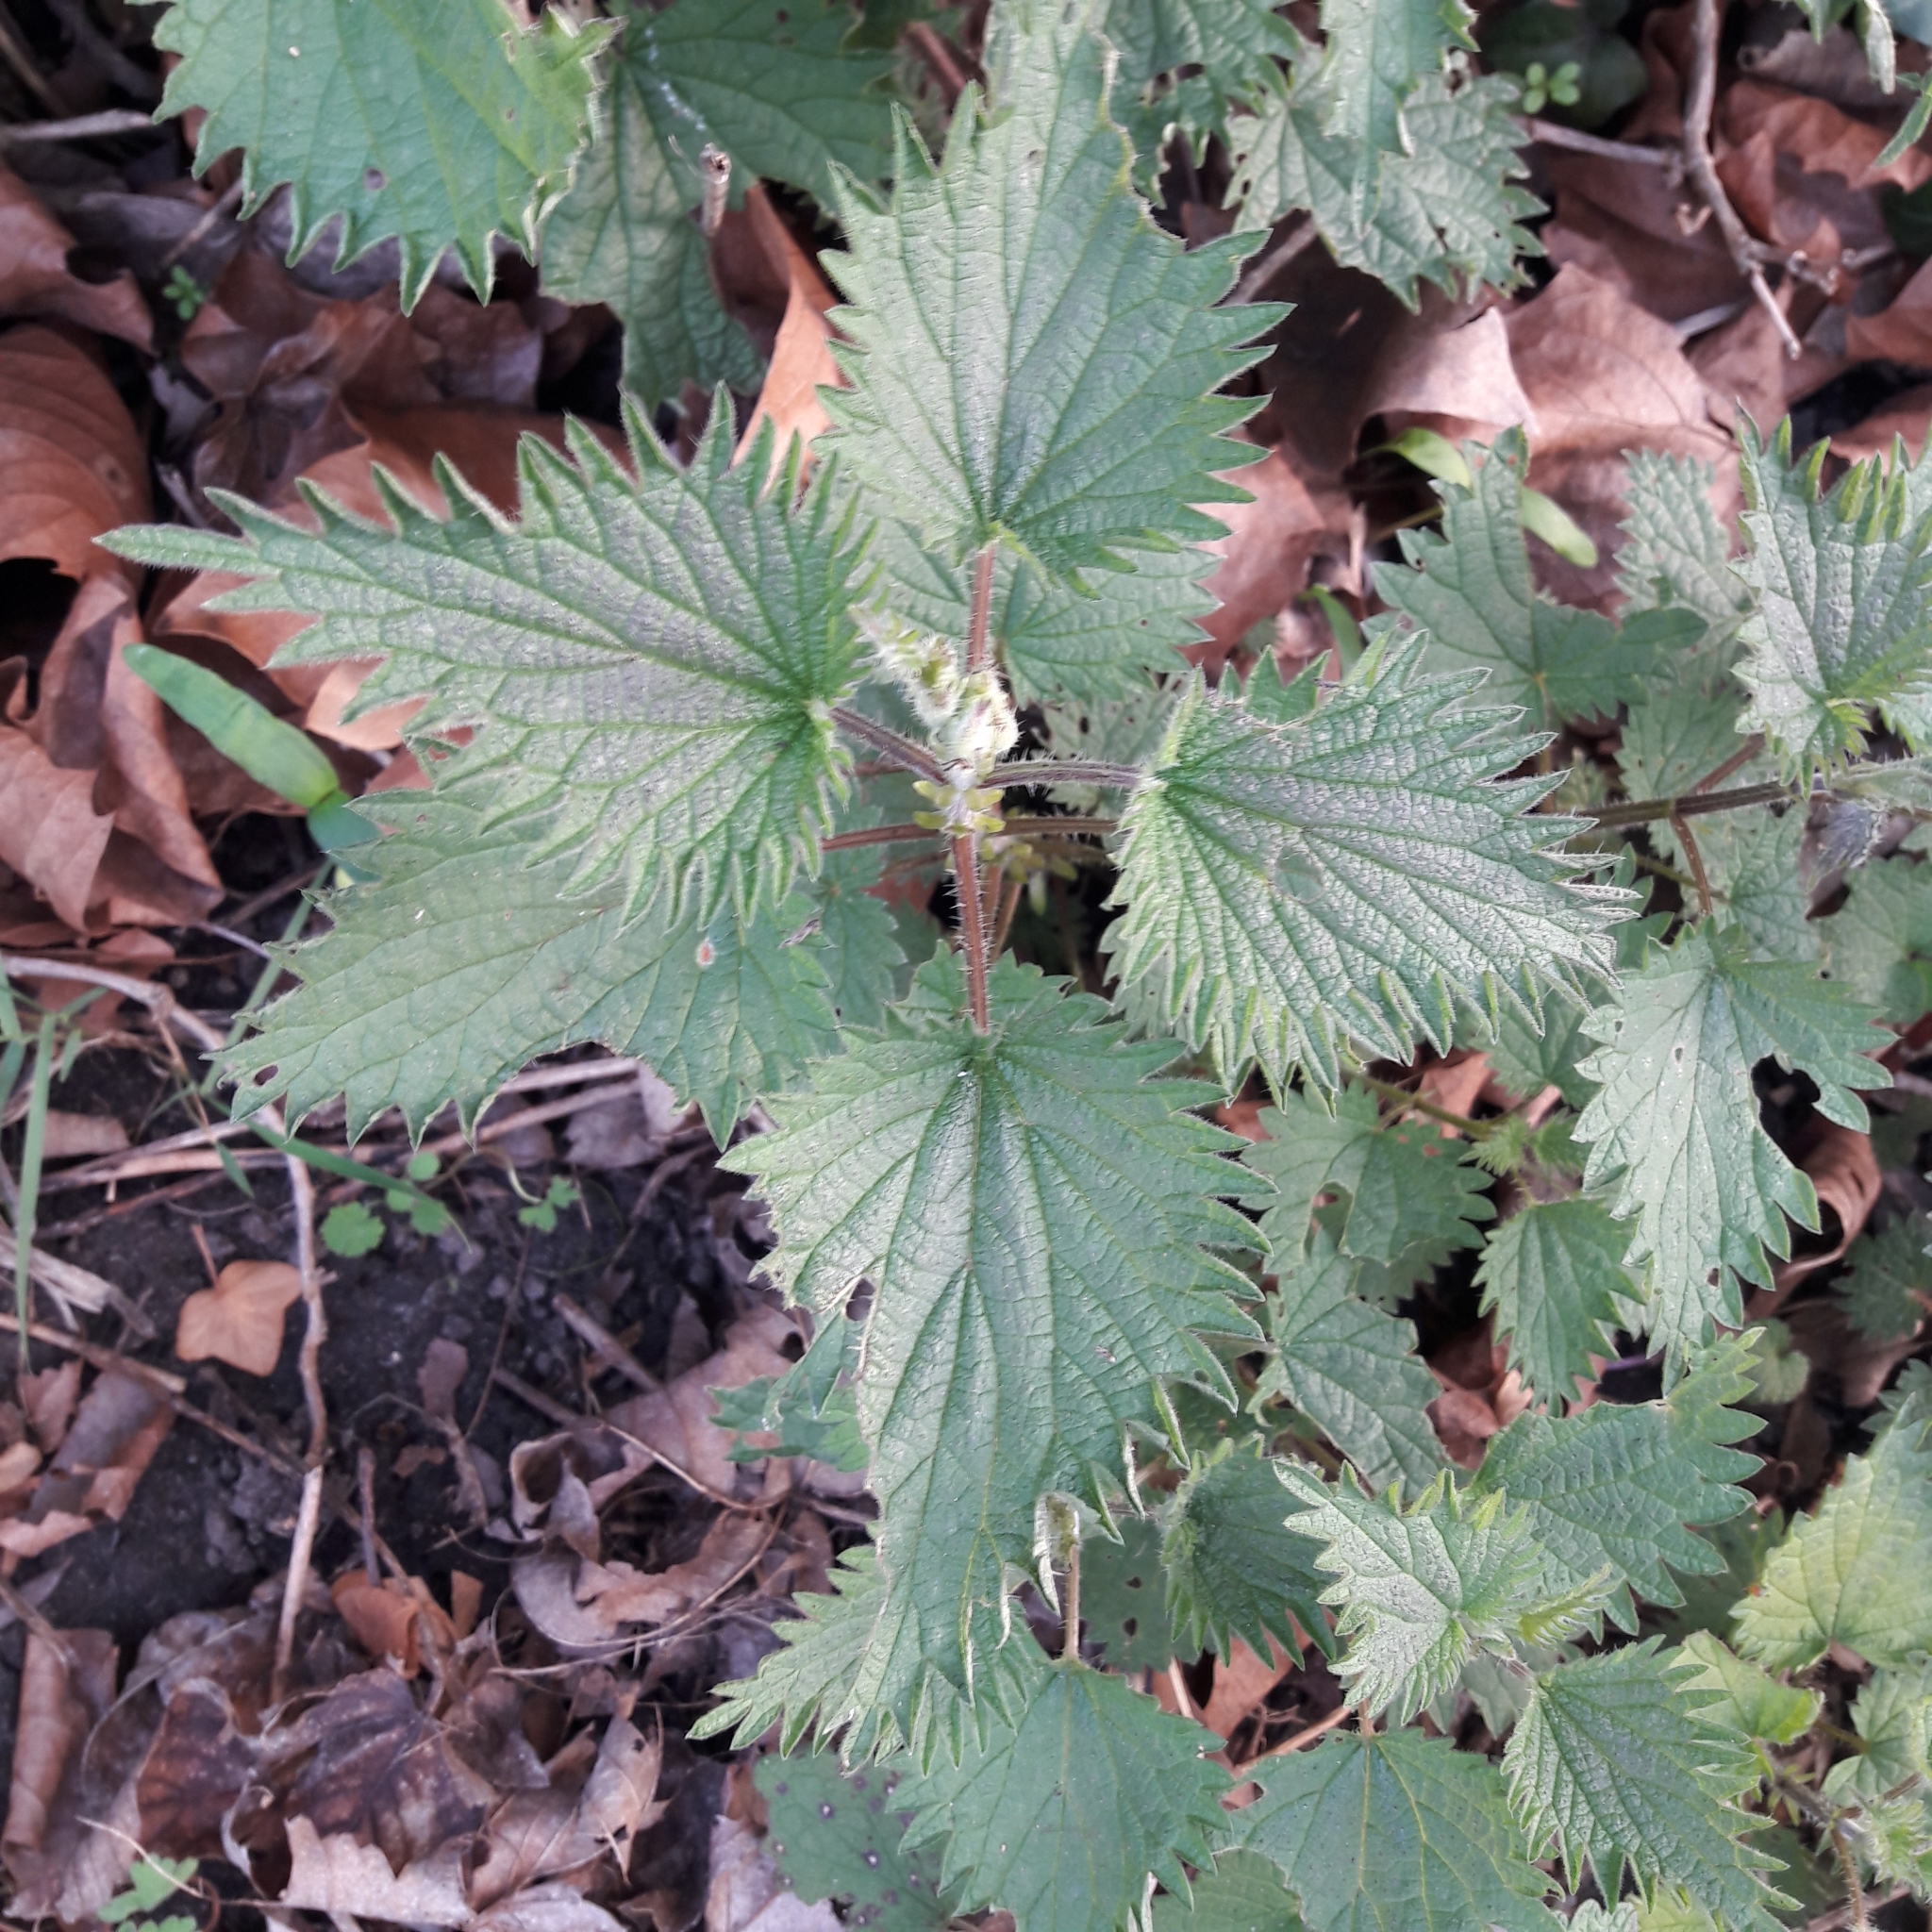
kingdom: Plantae
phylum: Tracheophyta
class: Magnoliopsida
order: Rosales
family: Urticaceae
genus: Urtica
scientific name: Urtica dioica
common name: Common nettle
